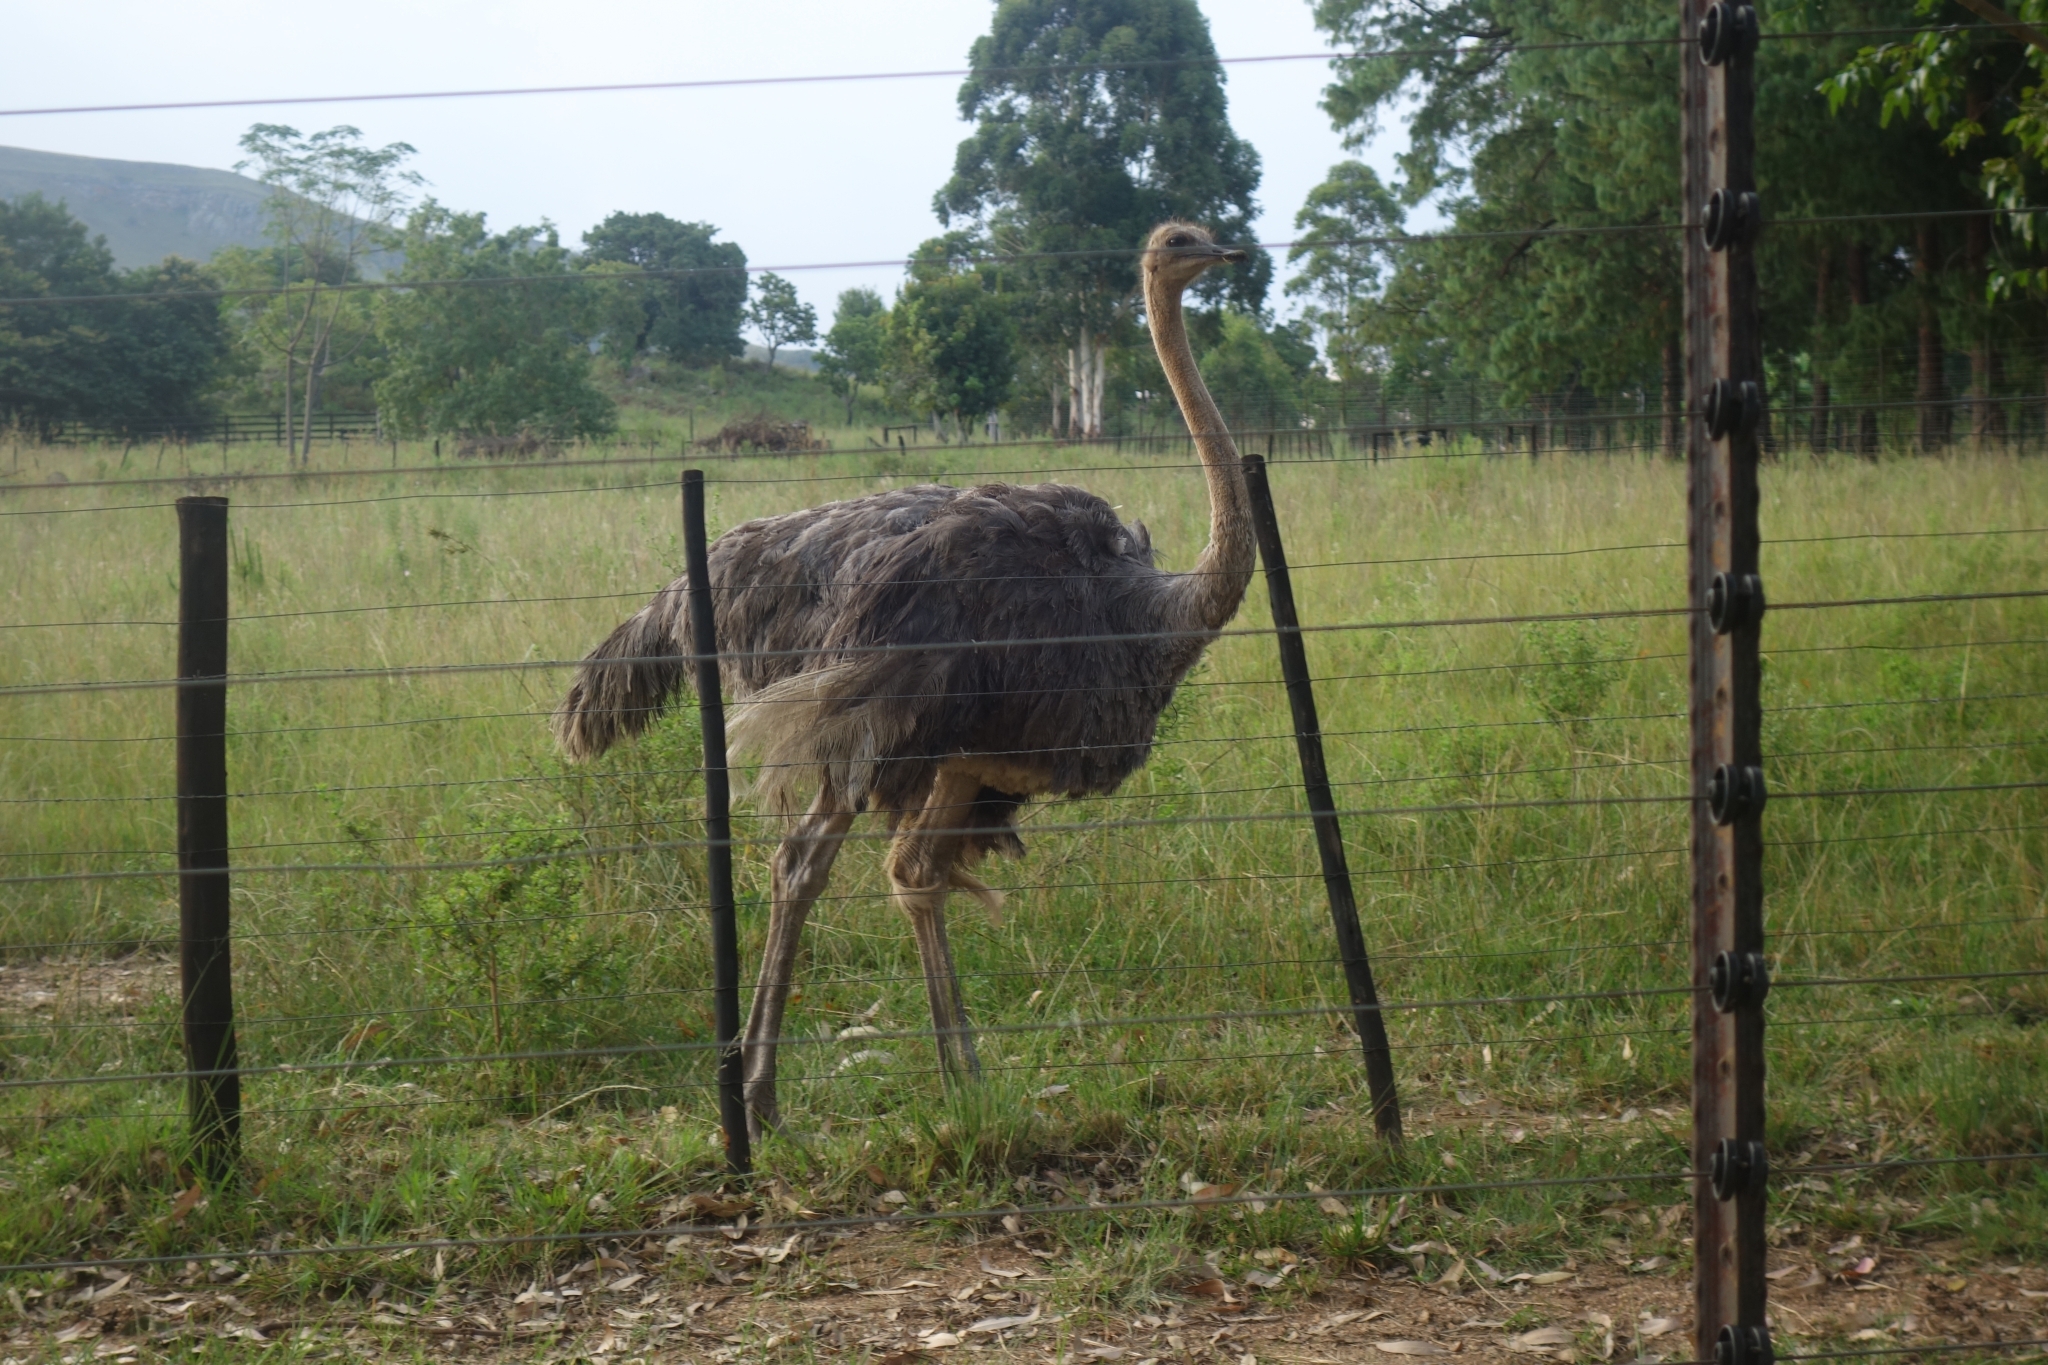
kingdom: Animalia
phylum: Chordata
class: Aves
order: Struthioniformes
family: Struthionidae
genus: Struthio
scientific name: Struthio camelus
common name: Common ostrich
